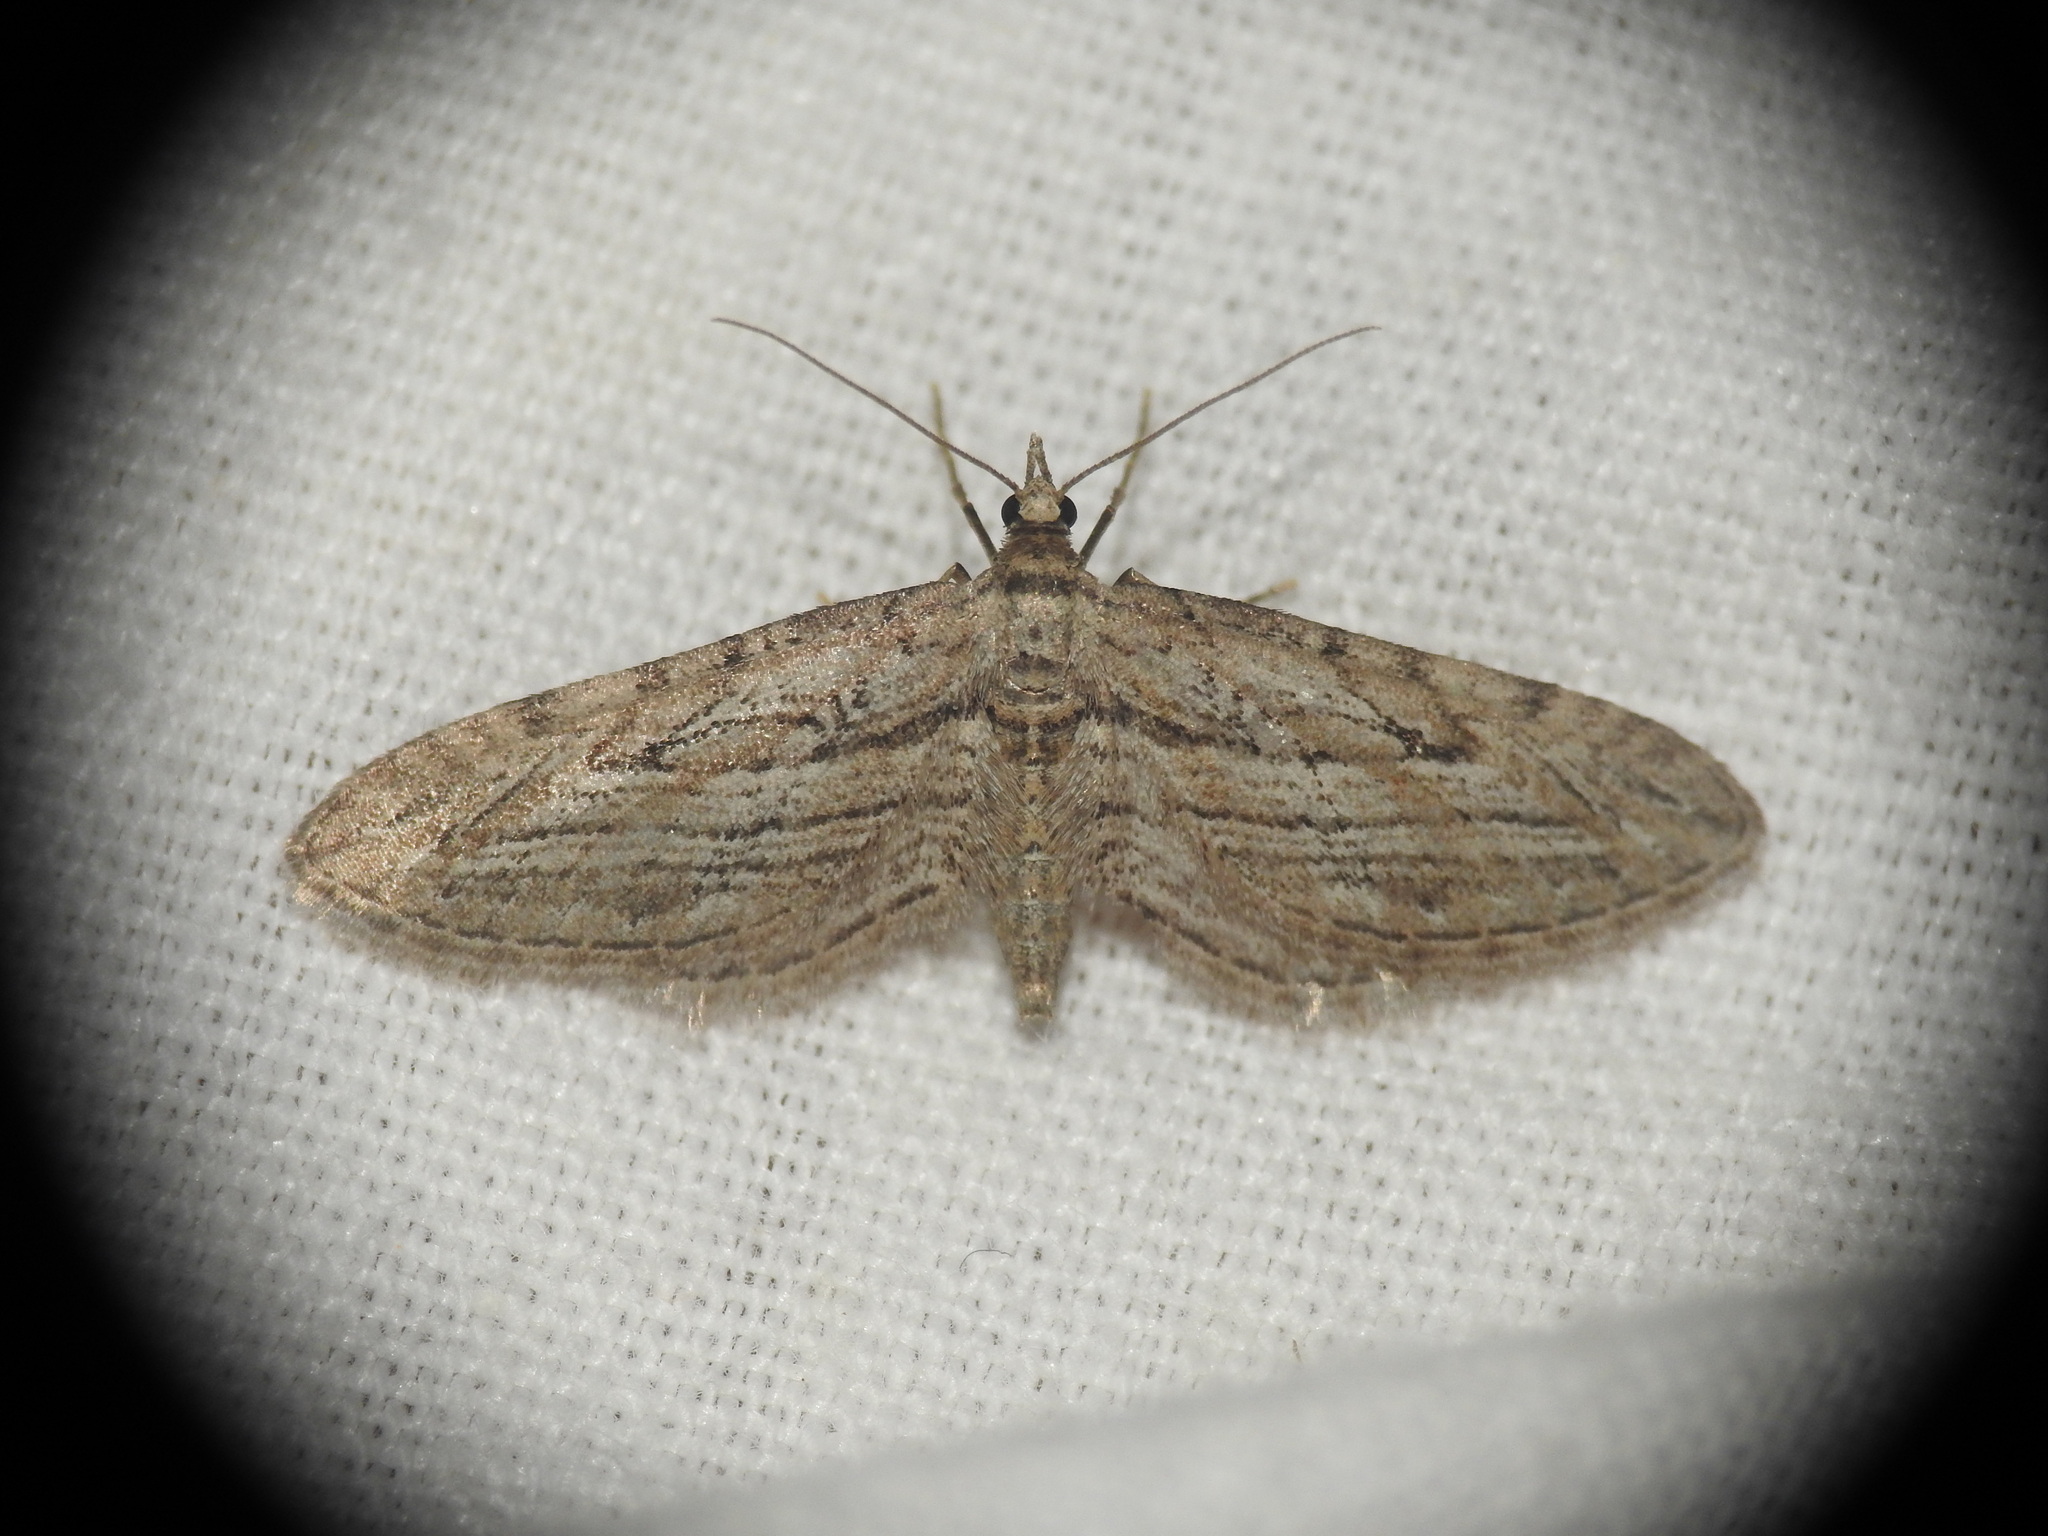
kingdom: Animalia
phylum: Arthropoda
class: Insecta
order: Lepidoptera
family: Geometridae
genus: Eupithecia
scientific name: Eupithecia rosmarinata
